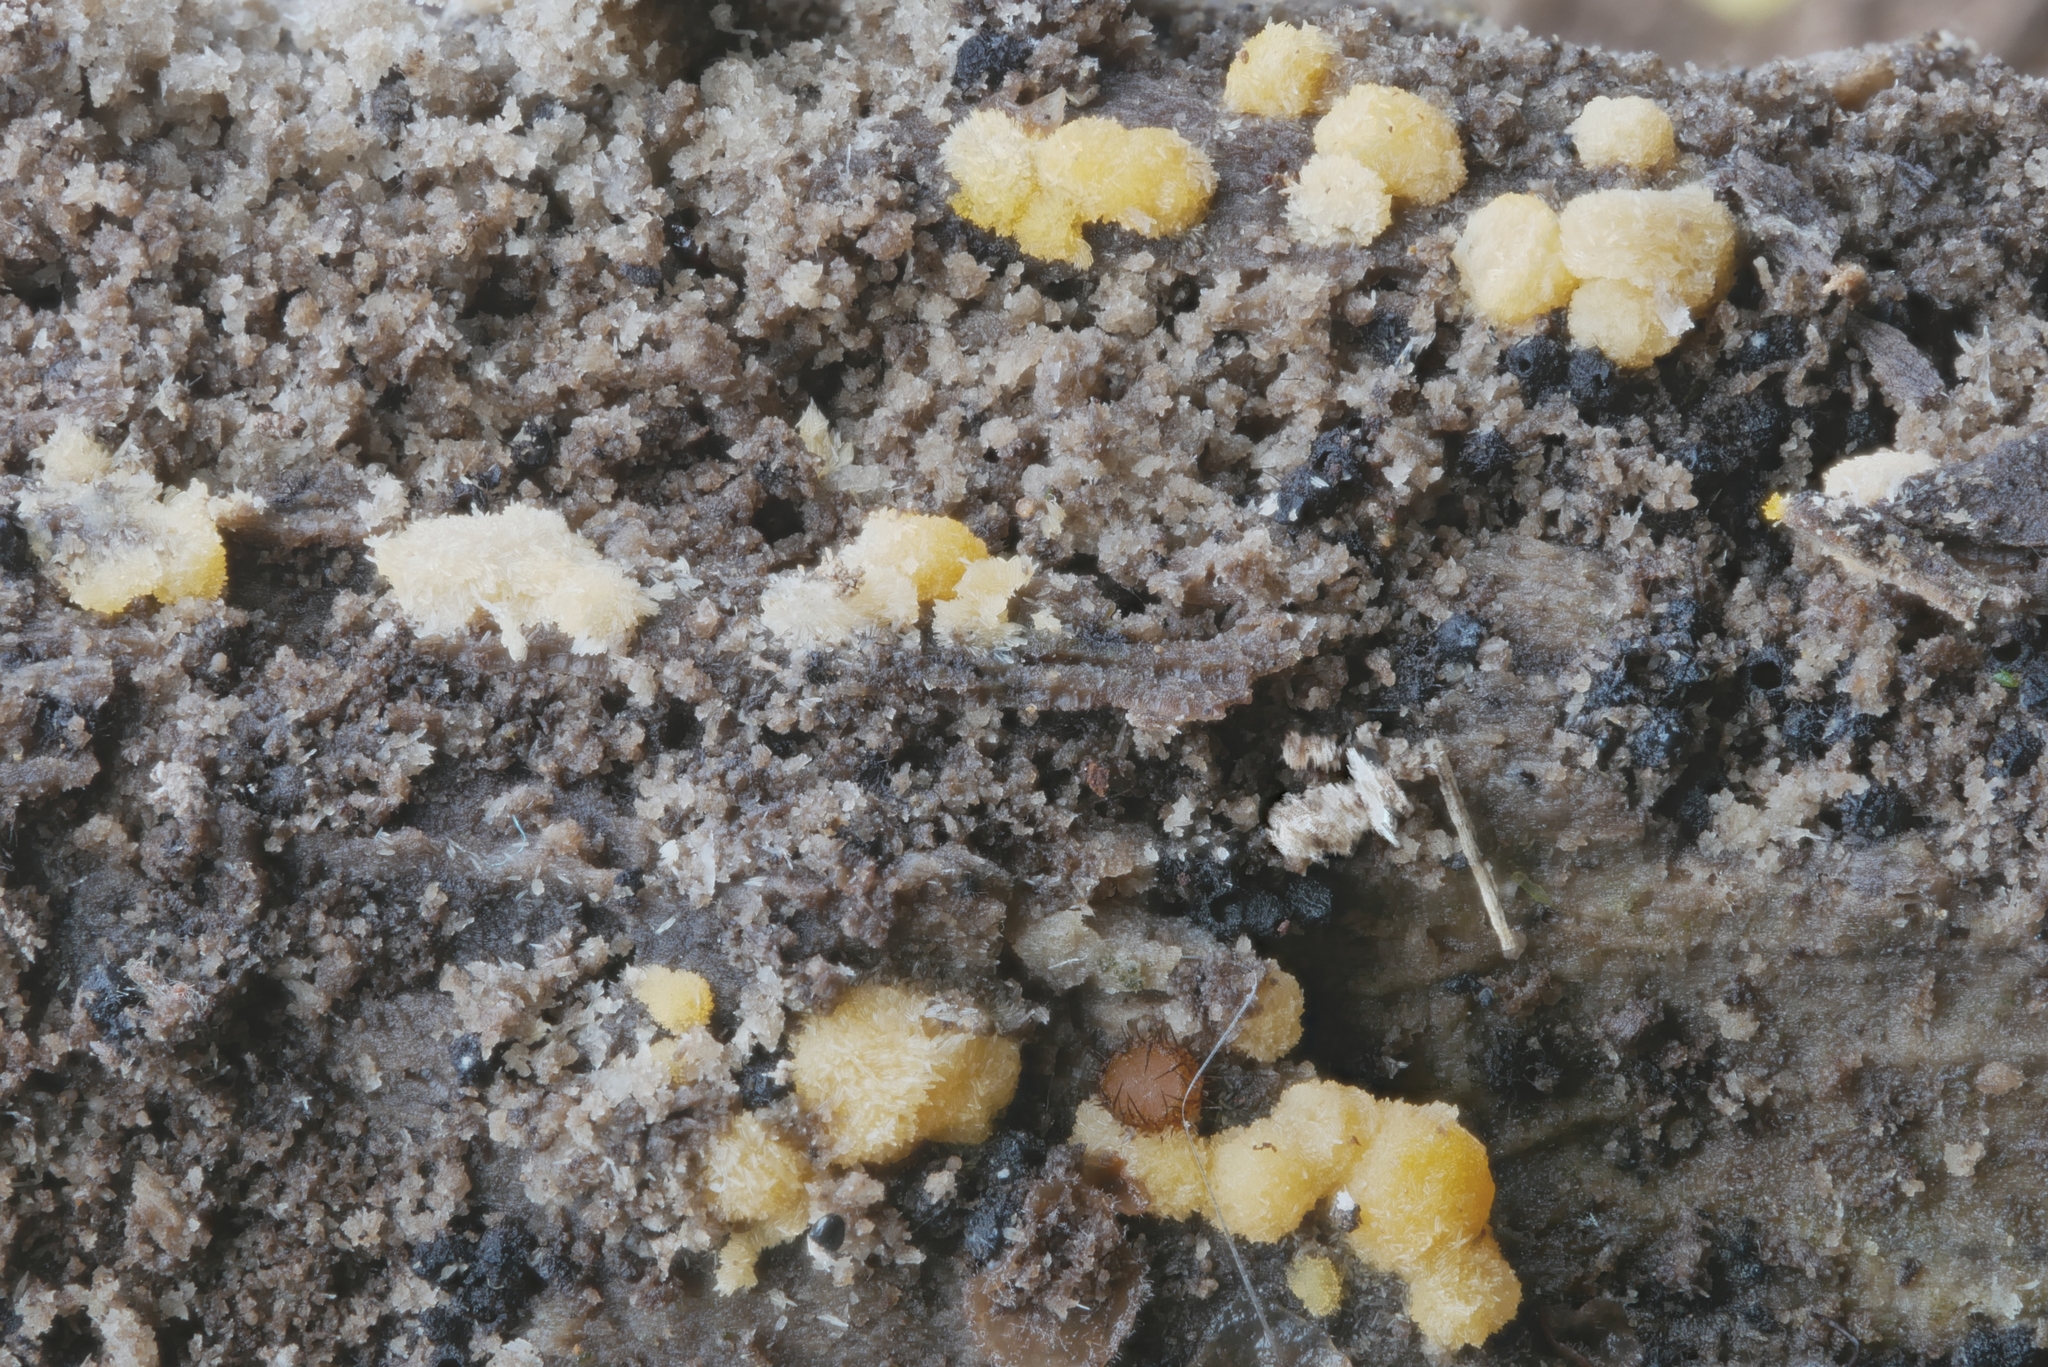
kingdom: Fungi
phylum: Ascomycota
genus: Bactridium
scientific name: Bactridium flavum
